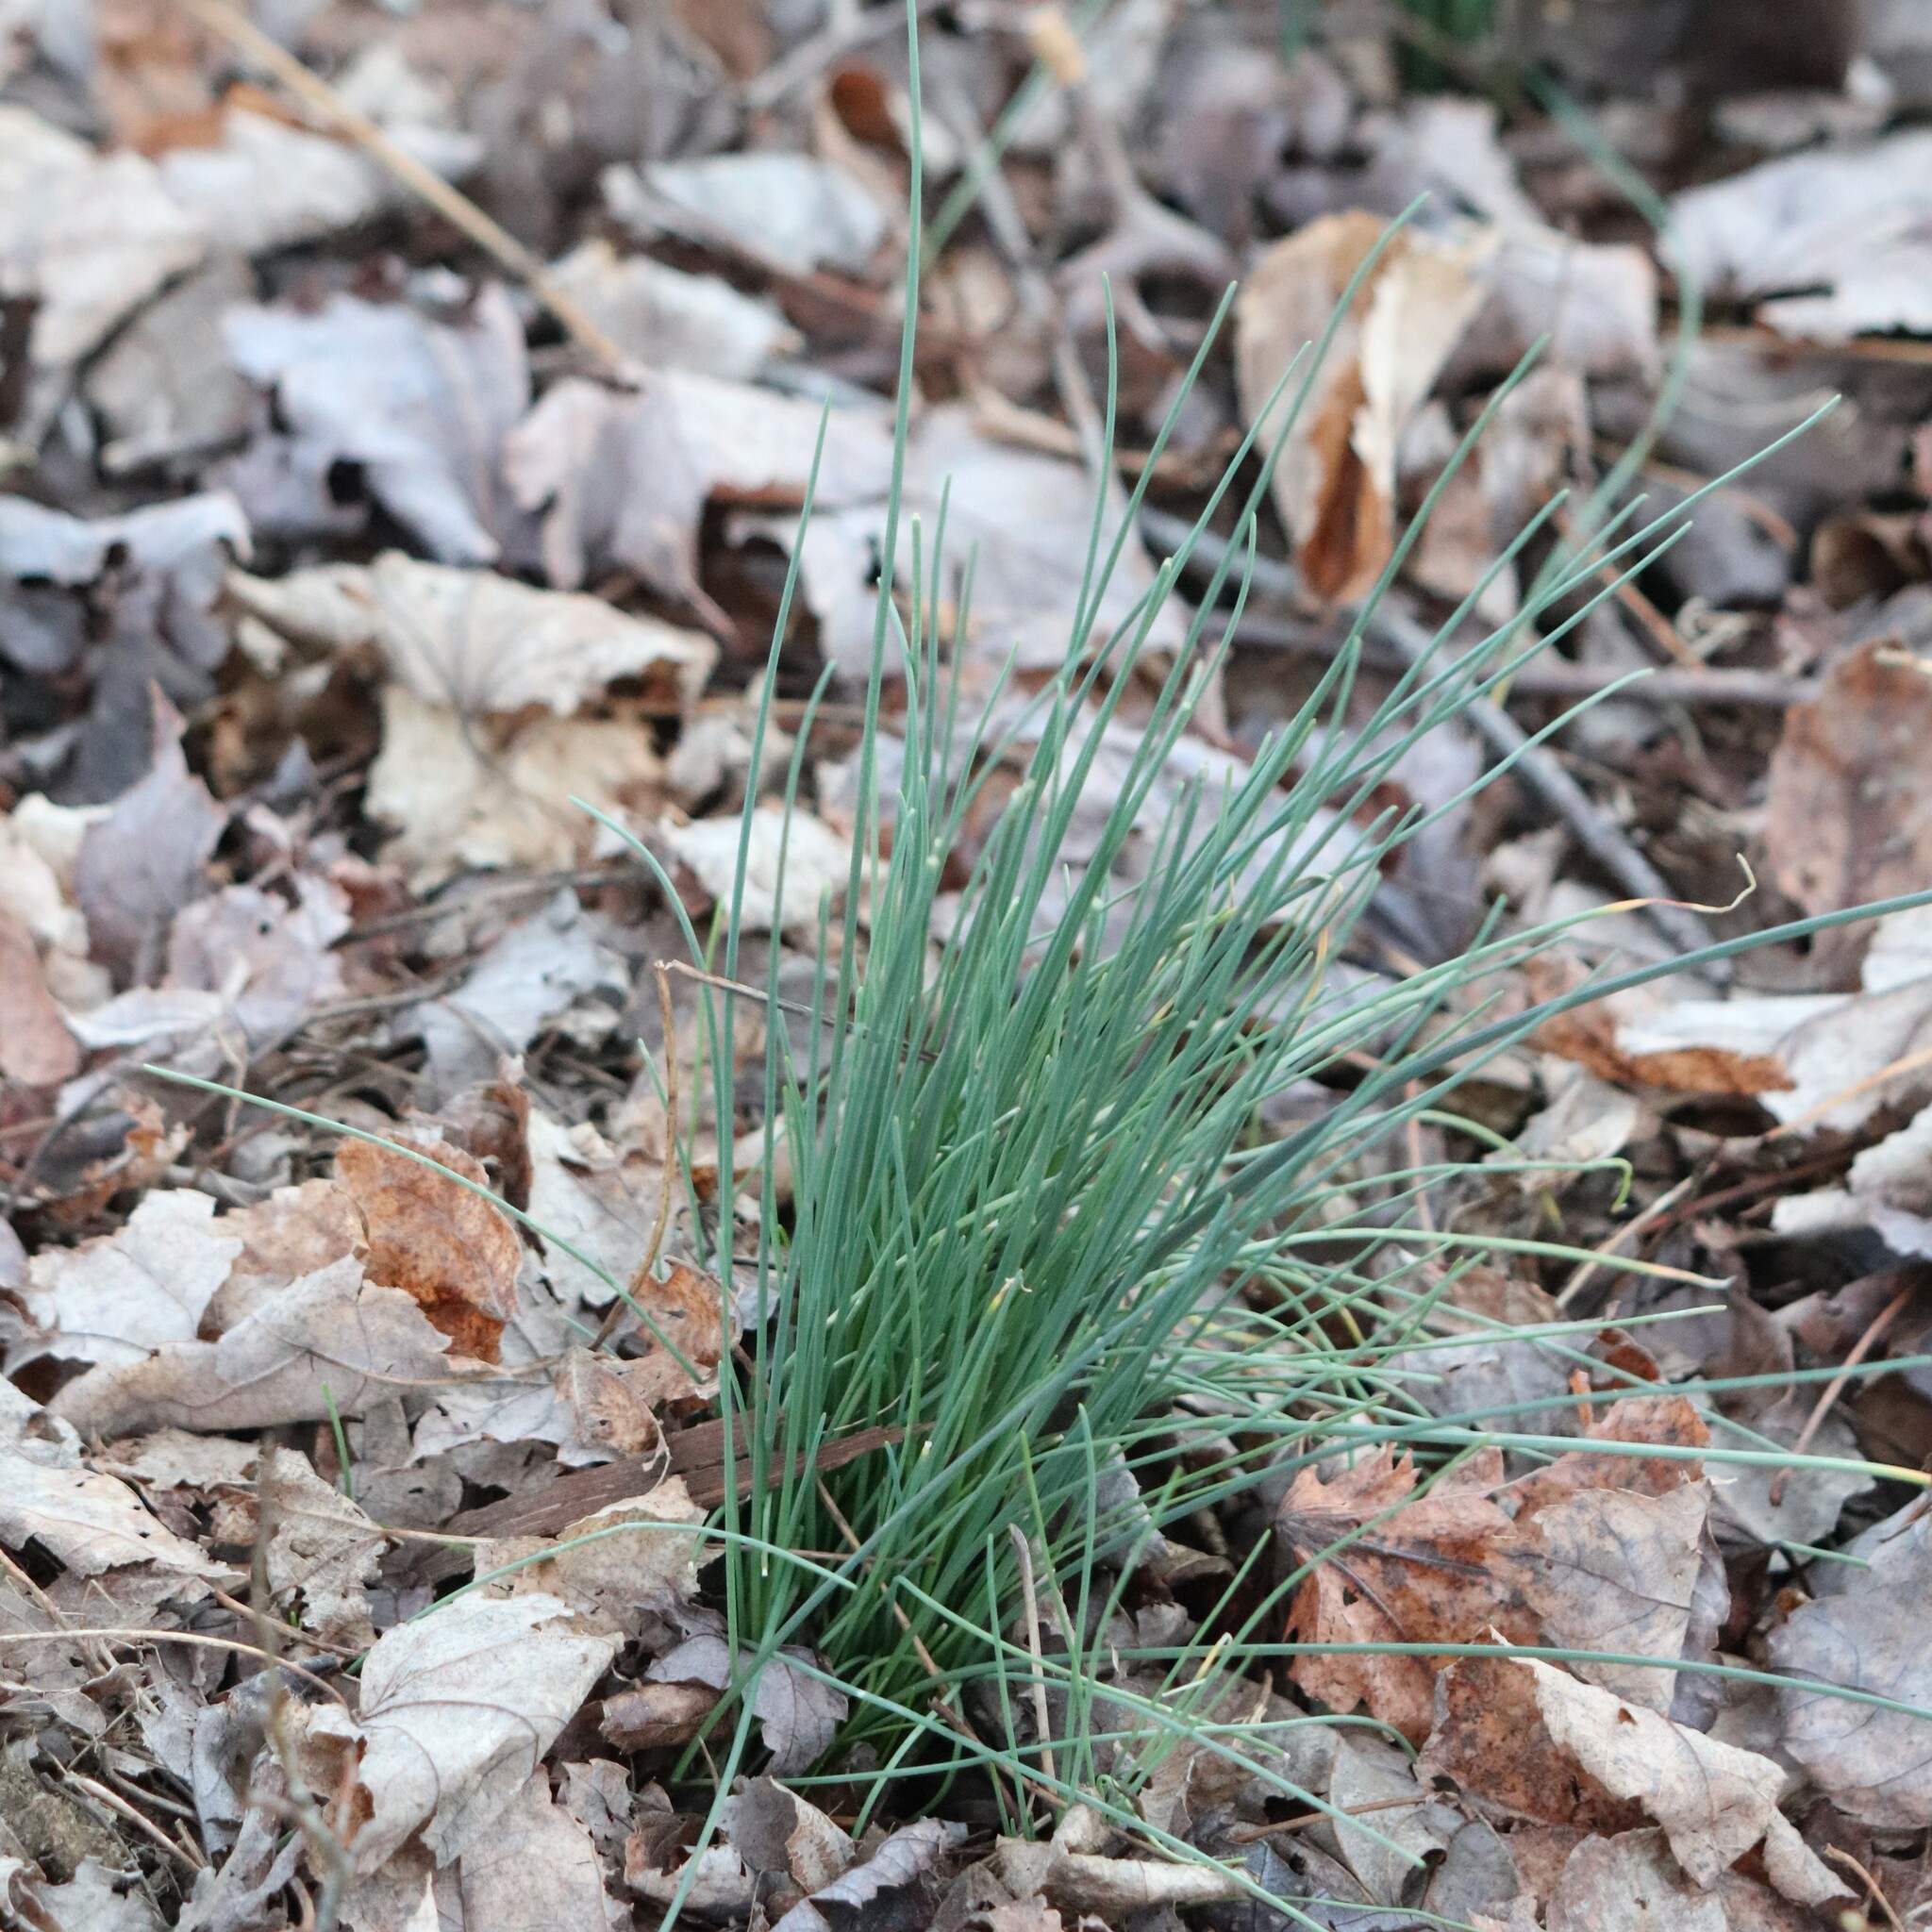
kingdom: Plantae
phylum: Tracheophyta
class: Liliopsida
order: Asparagales
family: Amaryllidaceae
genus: Allium
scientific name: Allium vineale
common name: Crow garlic
